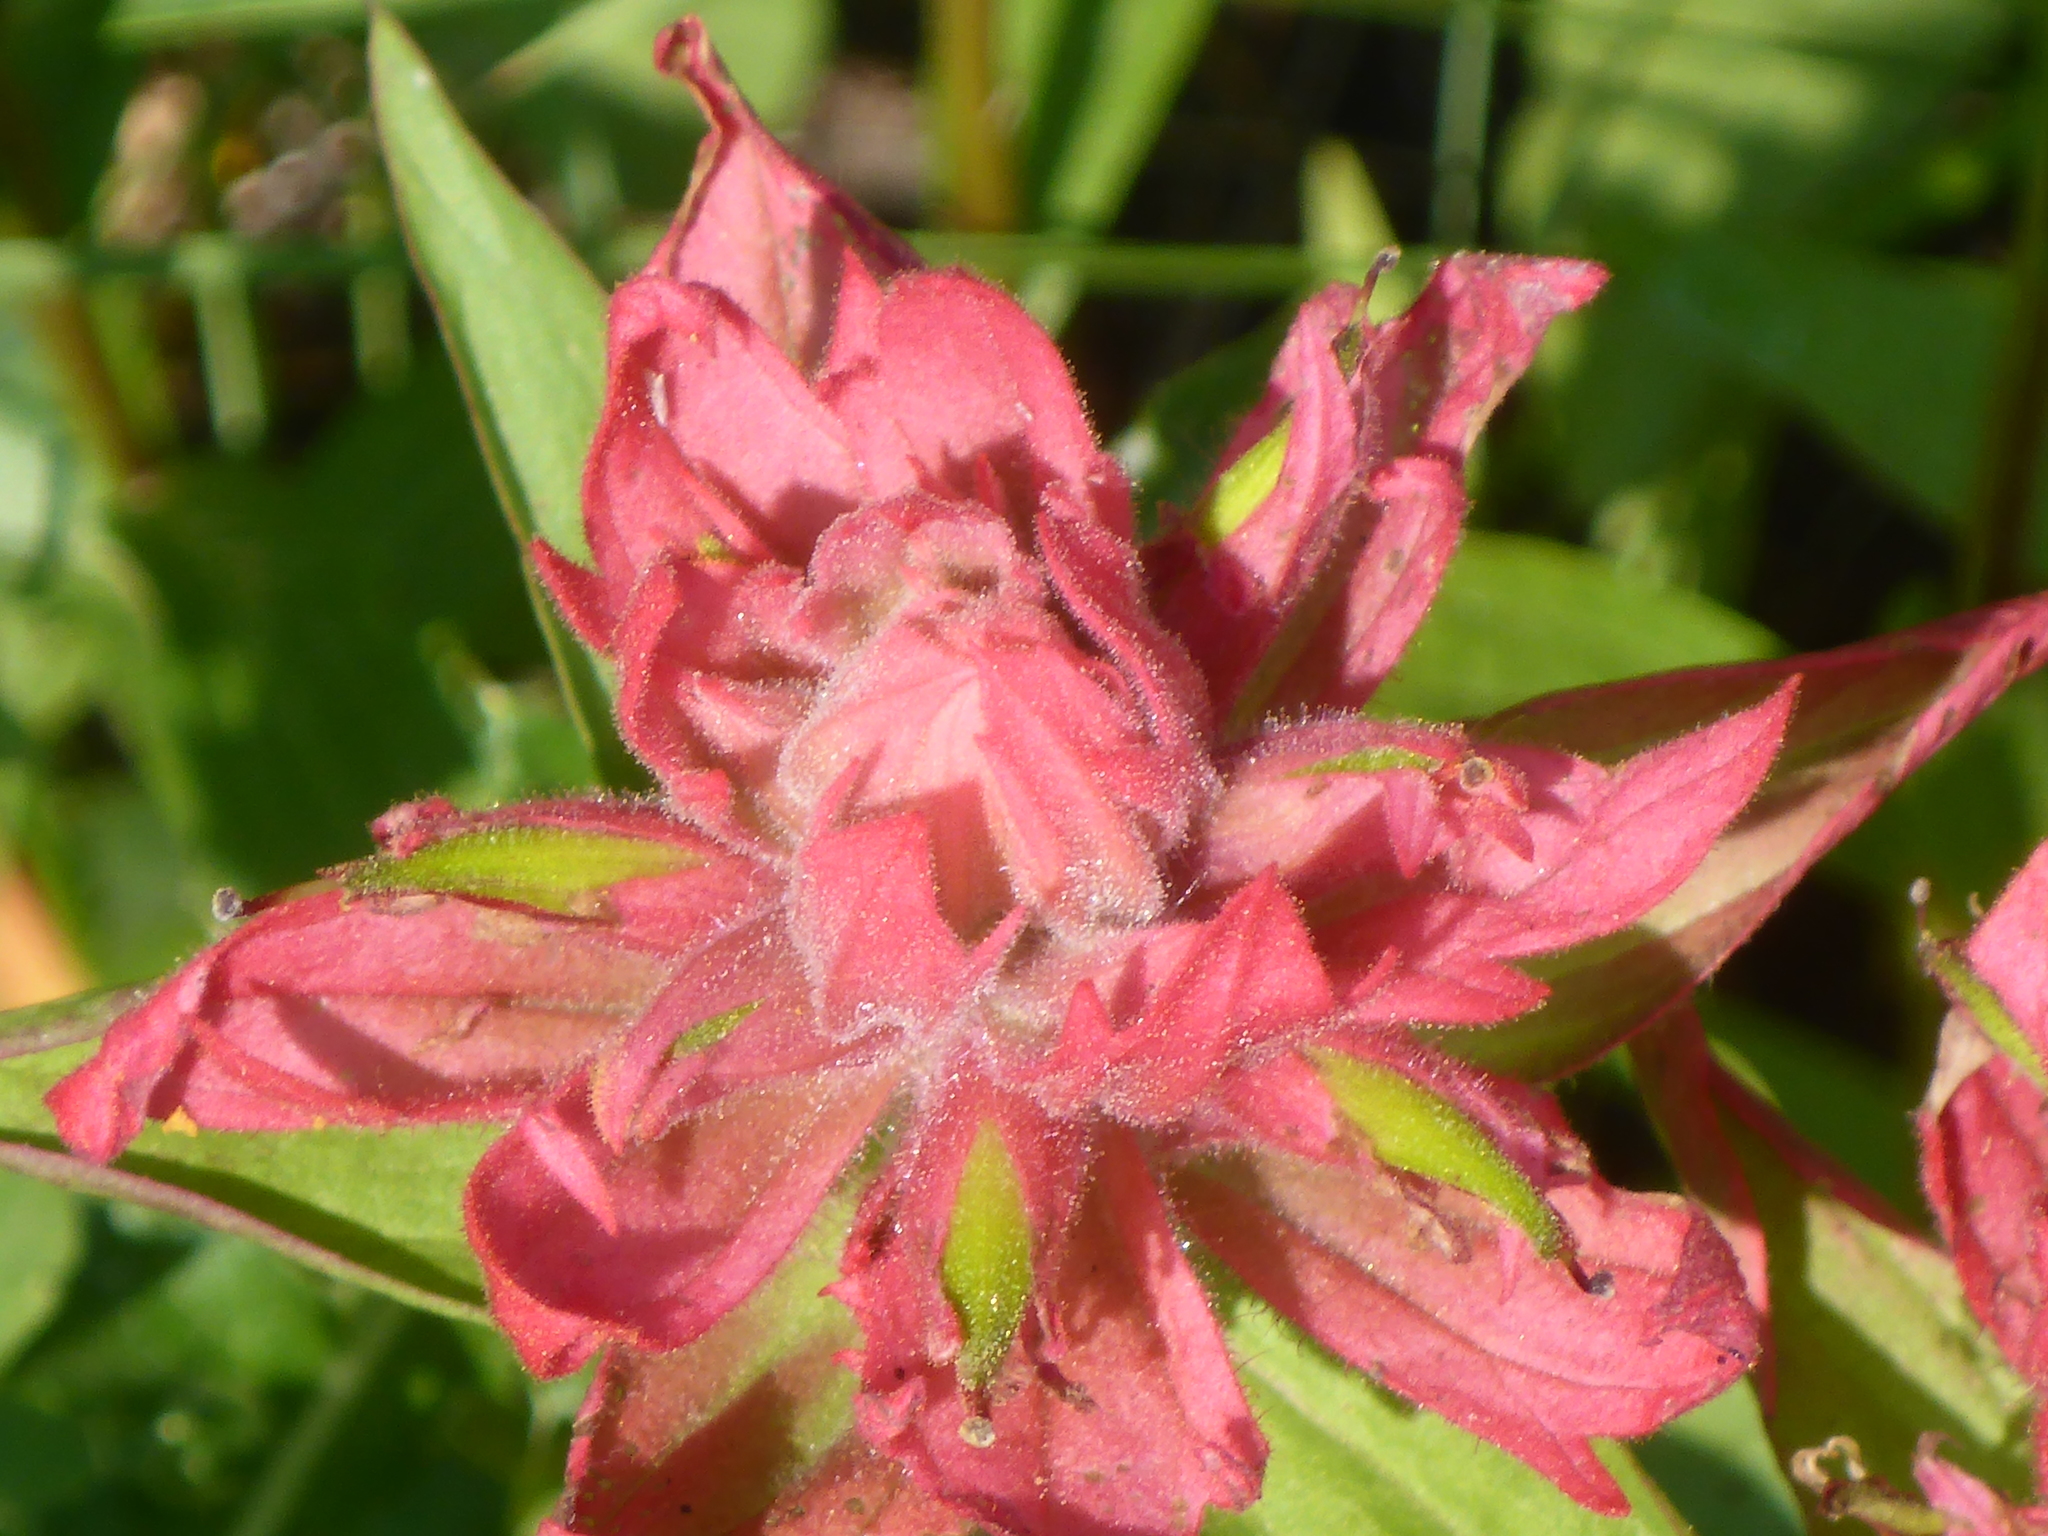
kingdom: Plantae
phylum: Tracheophyta
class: Magnoliopsida
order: Lamiales
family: Orobanchaceae
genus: Castilleja
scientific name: Castilleja miniata
